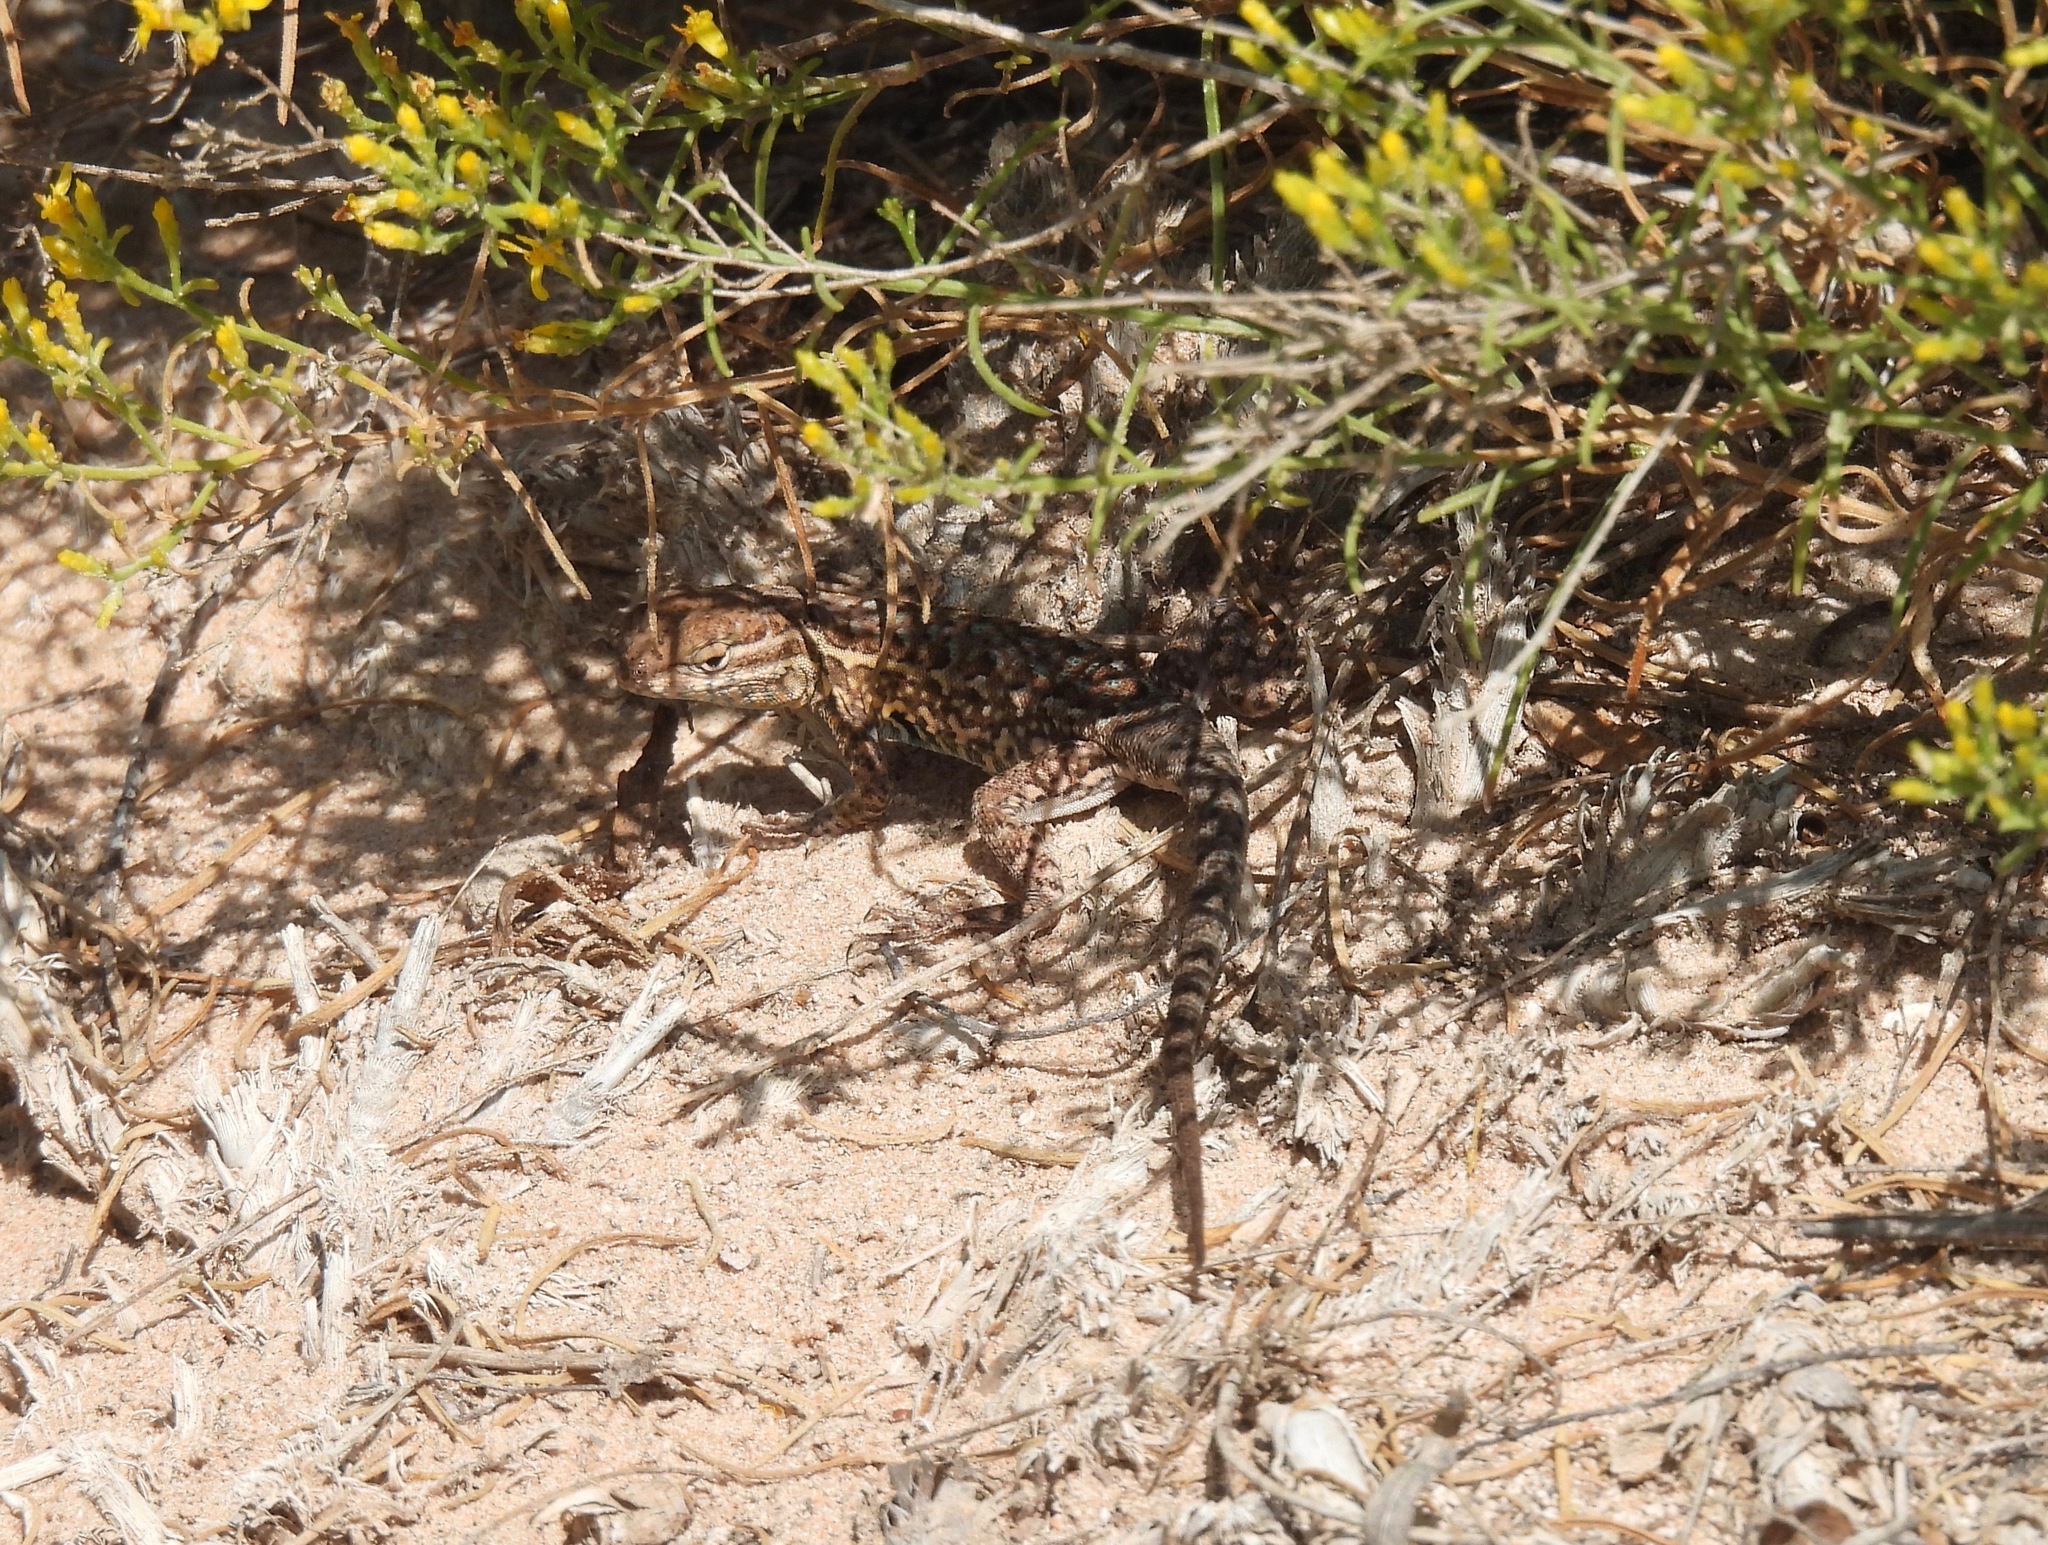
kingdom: Animalia
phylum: Chordata
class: Squamata
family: Phrynosomatidae
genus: Uta
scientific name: Uta stansburiana
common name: Side-blotched lizard
